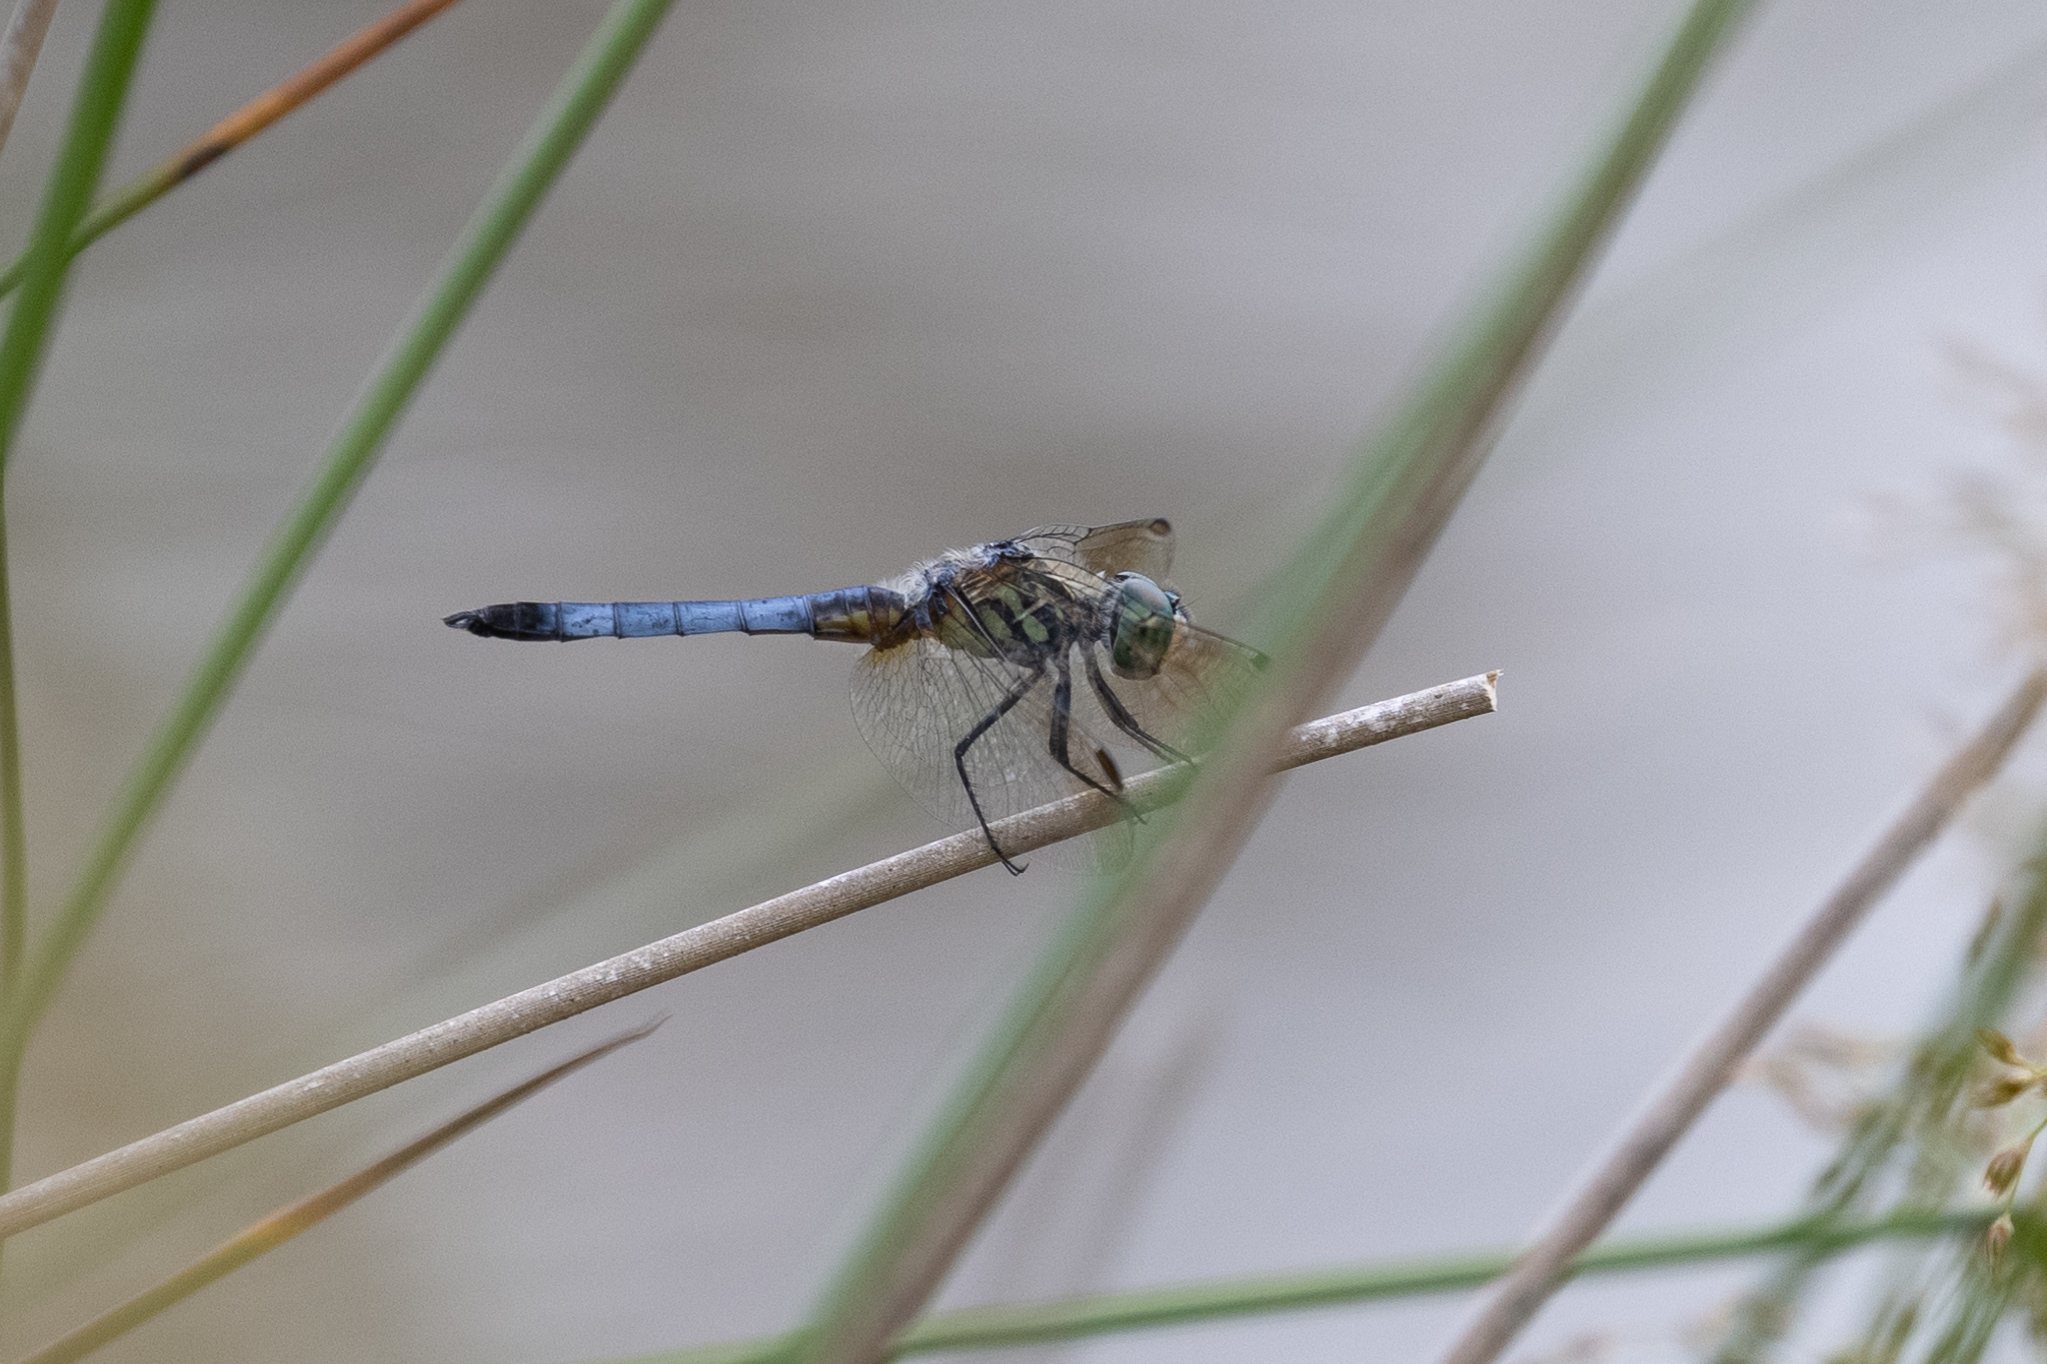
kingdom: Animalia
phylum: Arthropoda
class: Insecta
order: Odonata
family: Libellulidae
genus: Pachydiplax
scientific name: Pachydiplax longipennis
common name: Blue dasher
